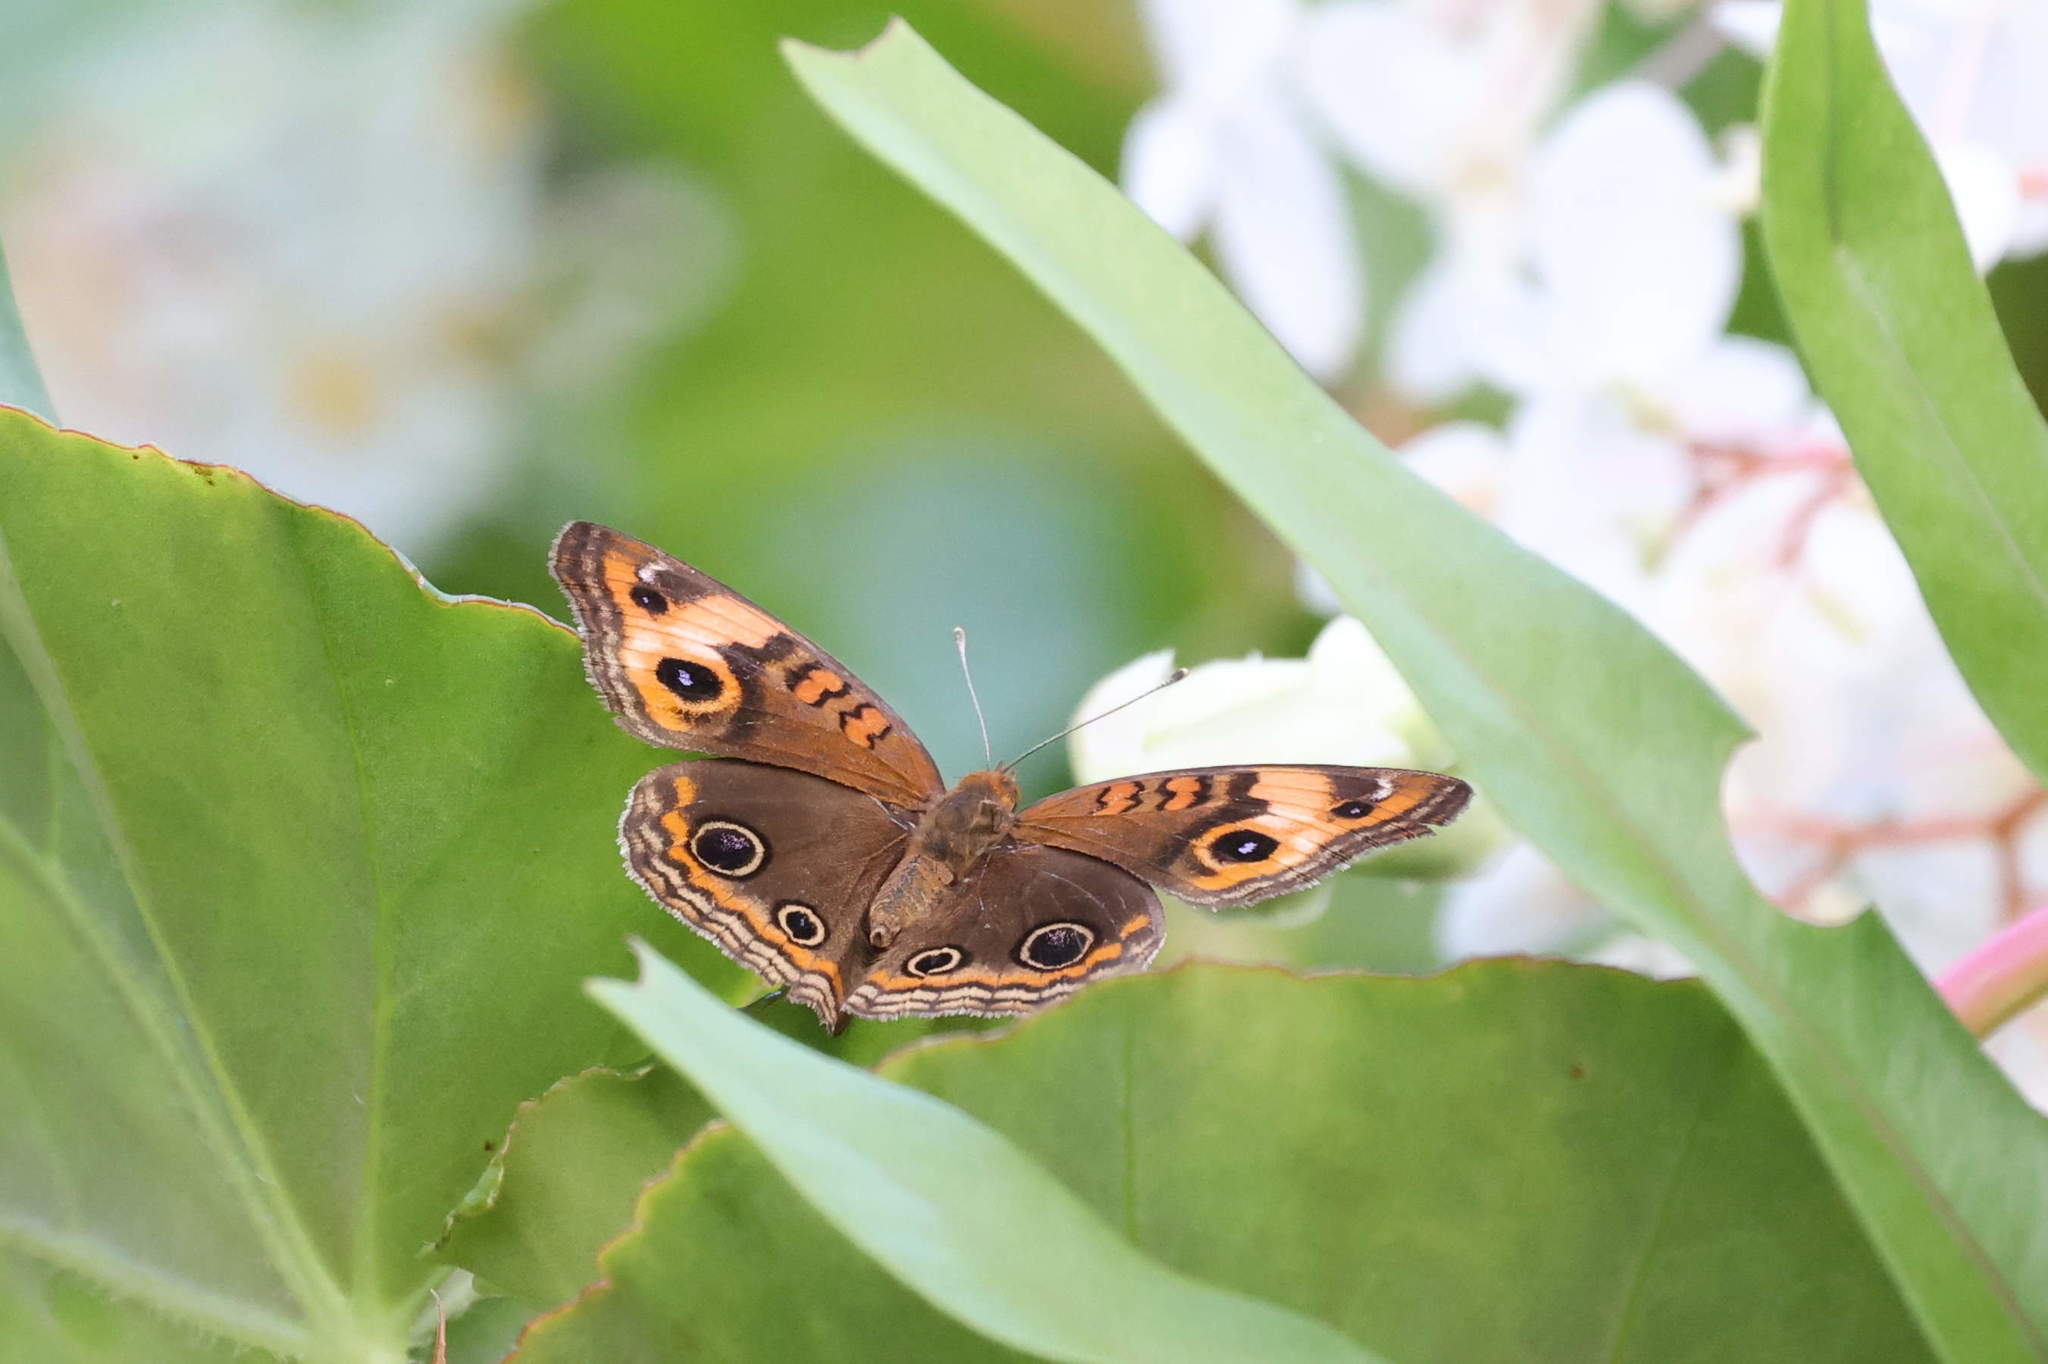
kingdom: Animalia
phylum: Arthropoda
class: Insecta
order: Lepidoptera
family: Nymphalidae
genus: Junonia
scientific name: Junonia lavinia
